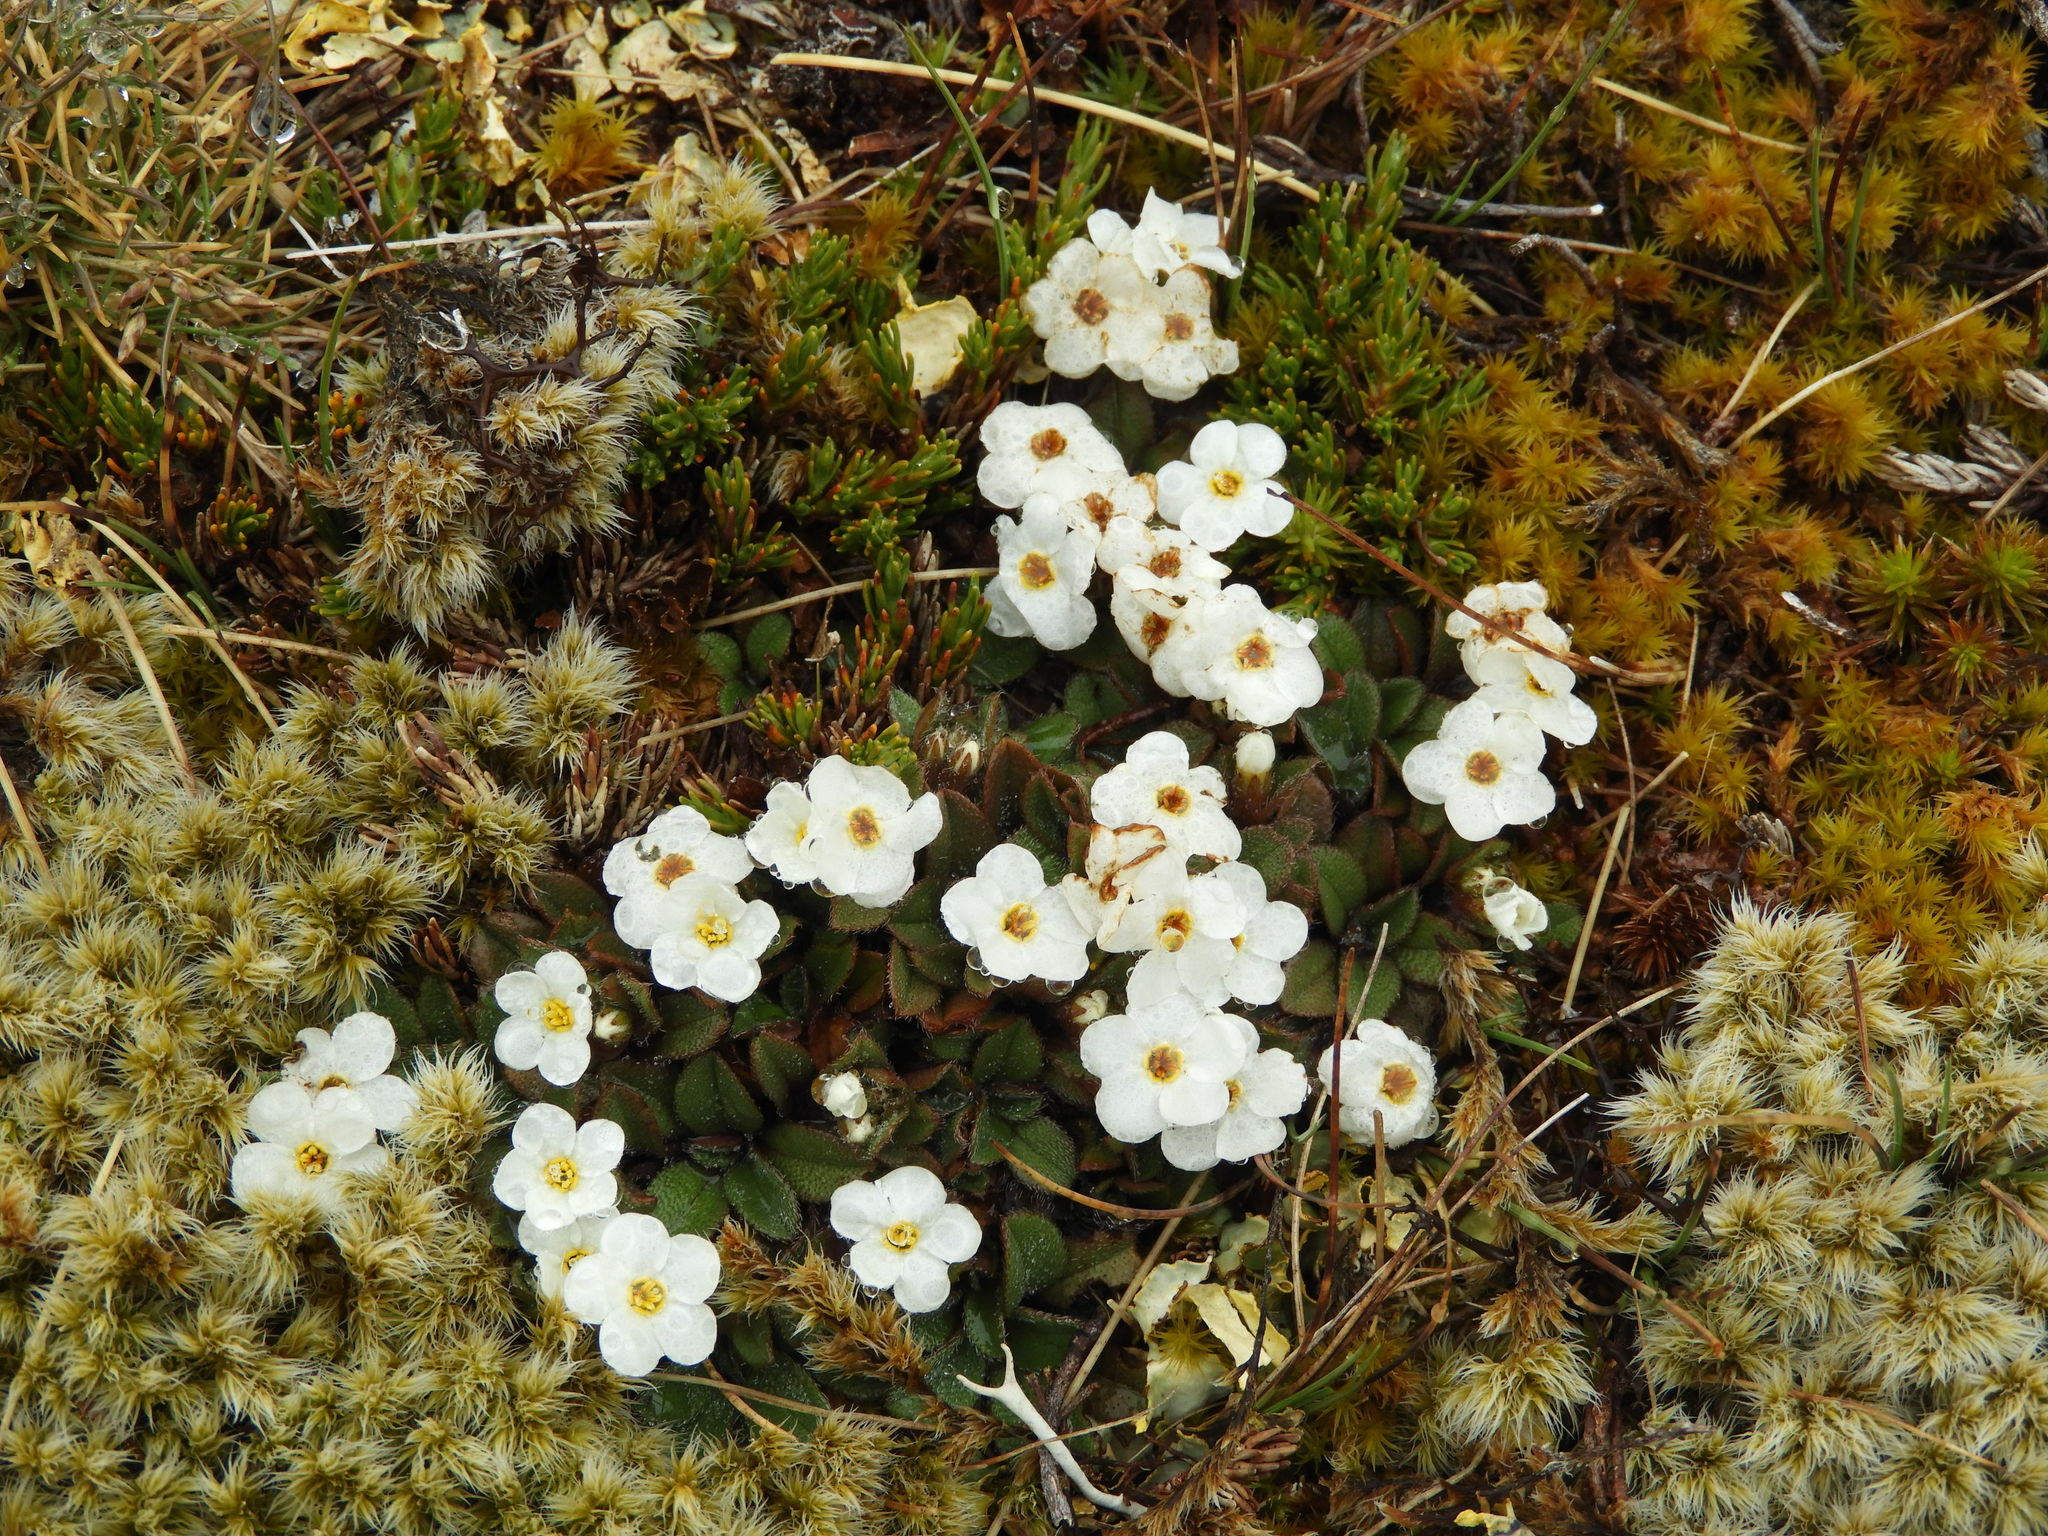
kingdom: Plantae
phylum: Tracheophyta
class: Magnoliopsida
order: Boraginales
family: Boraginaceae
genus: Myosotis
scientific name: Myosotis lyallii
